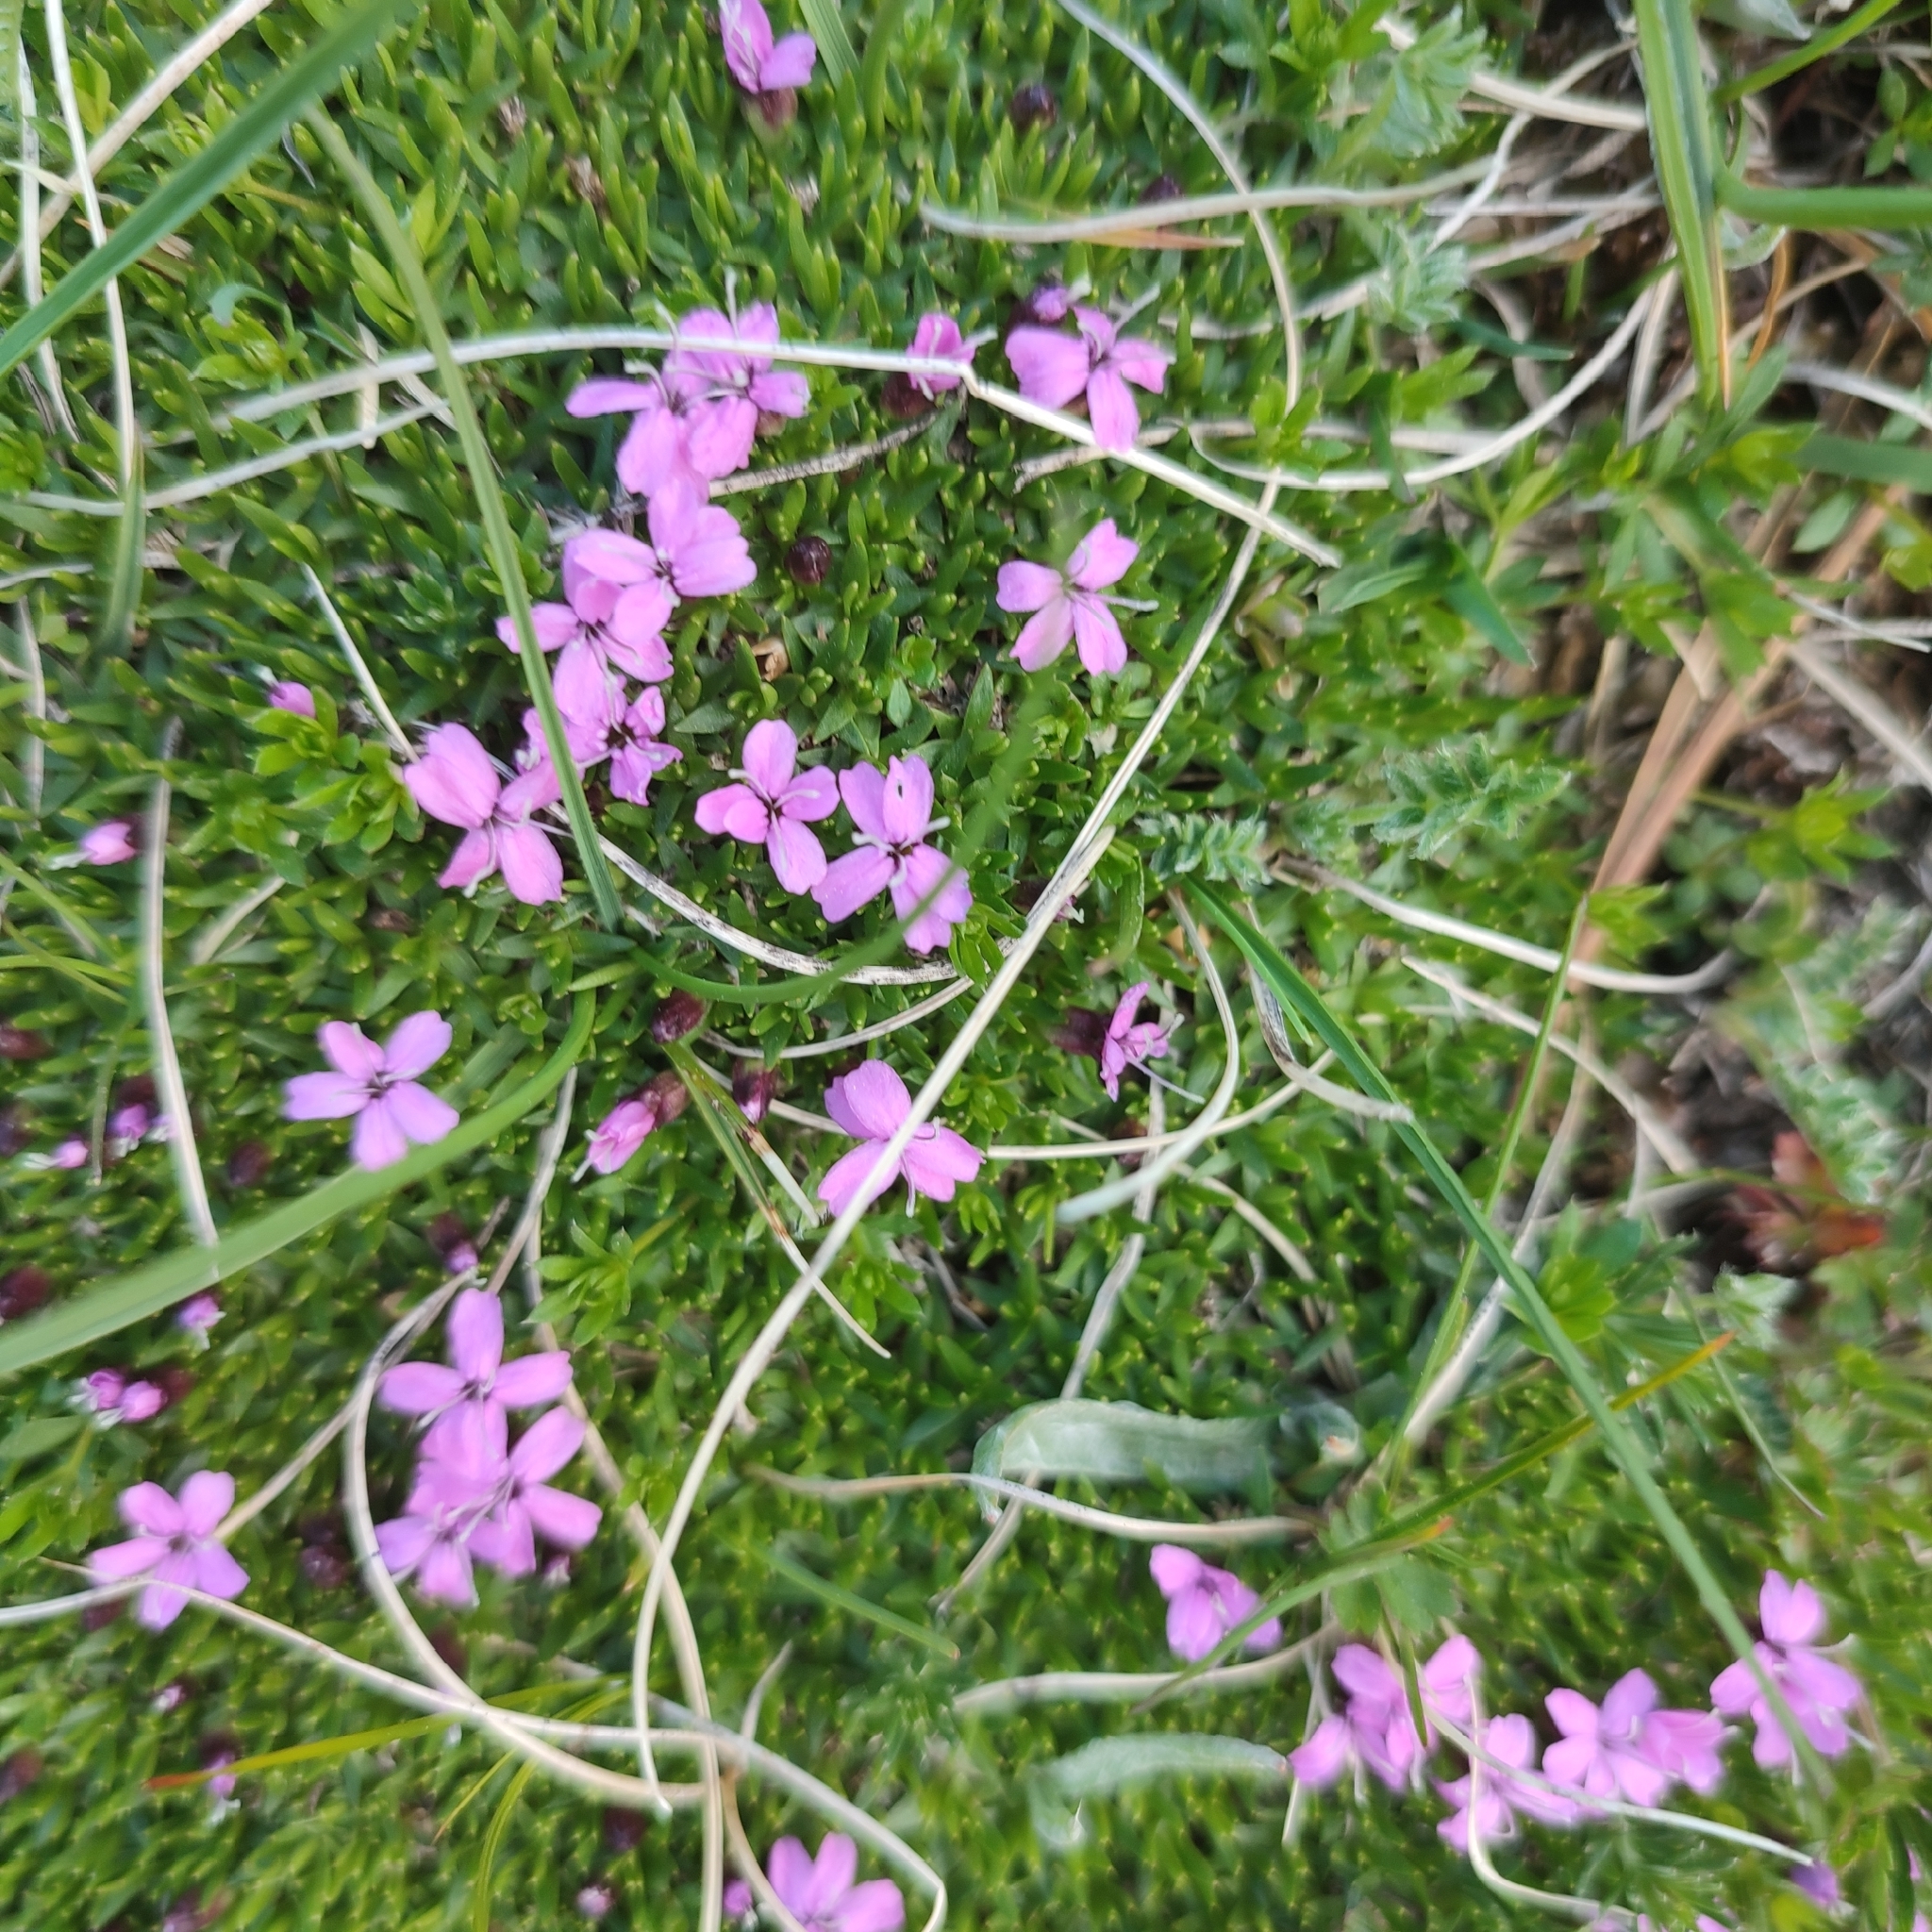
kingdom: Plantae
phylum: Tracheophyta
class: Magnoliopsida
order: Caryophyllales
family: Caryophyllaceae
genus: Silene
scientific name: Silene acaulis
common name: Moss campion
